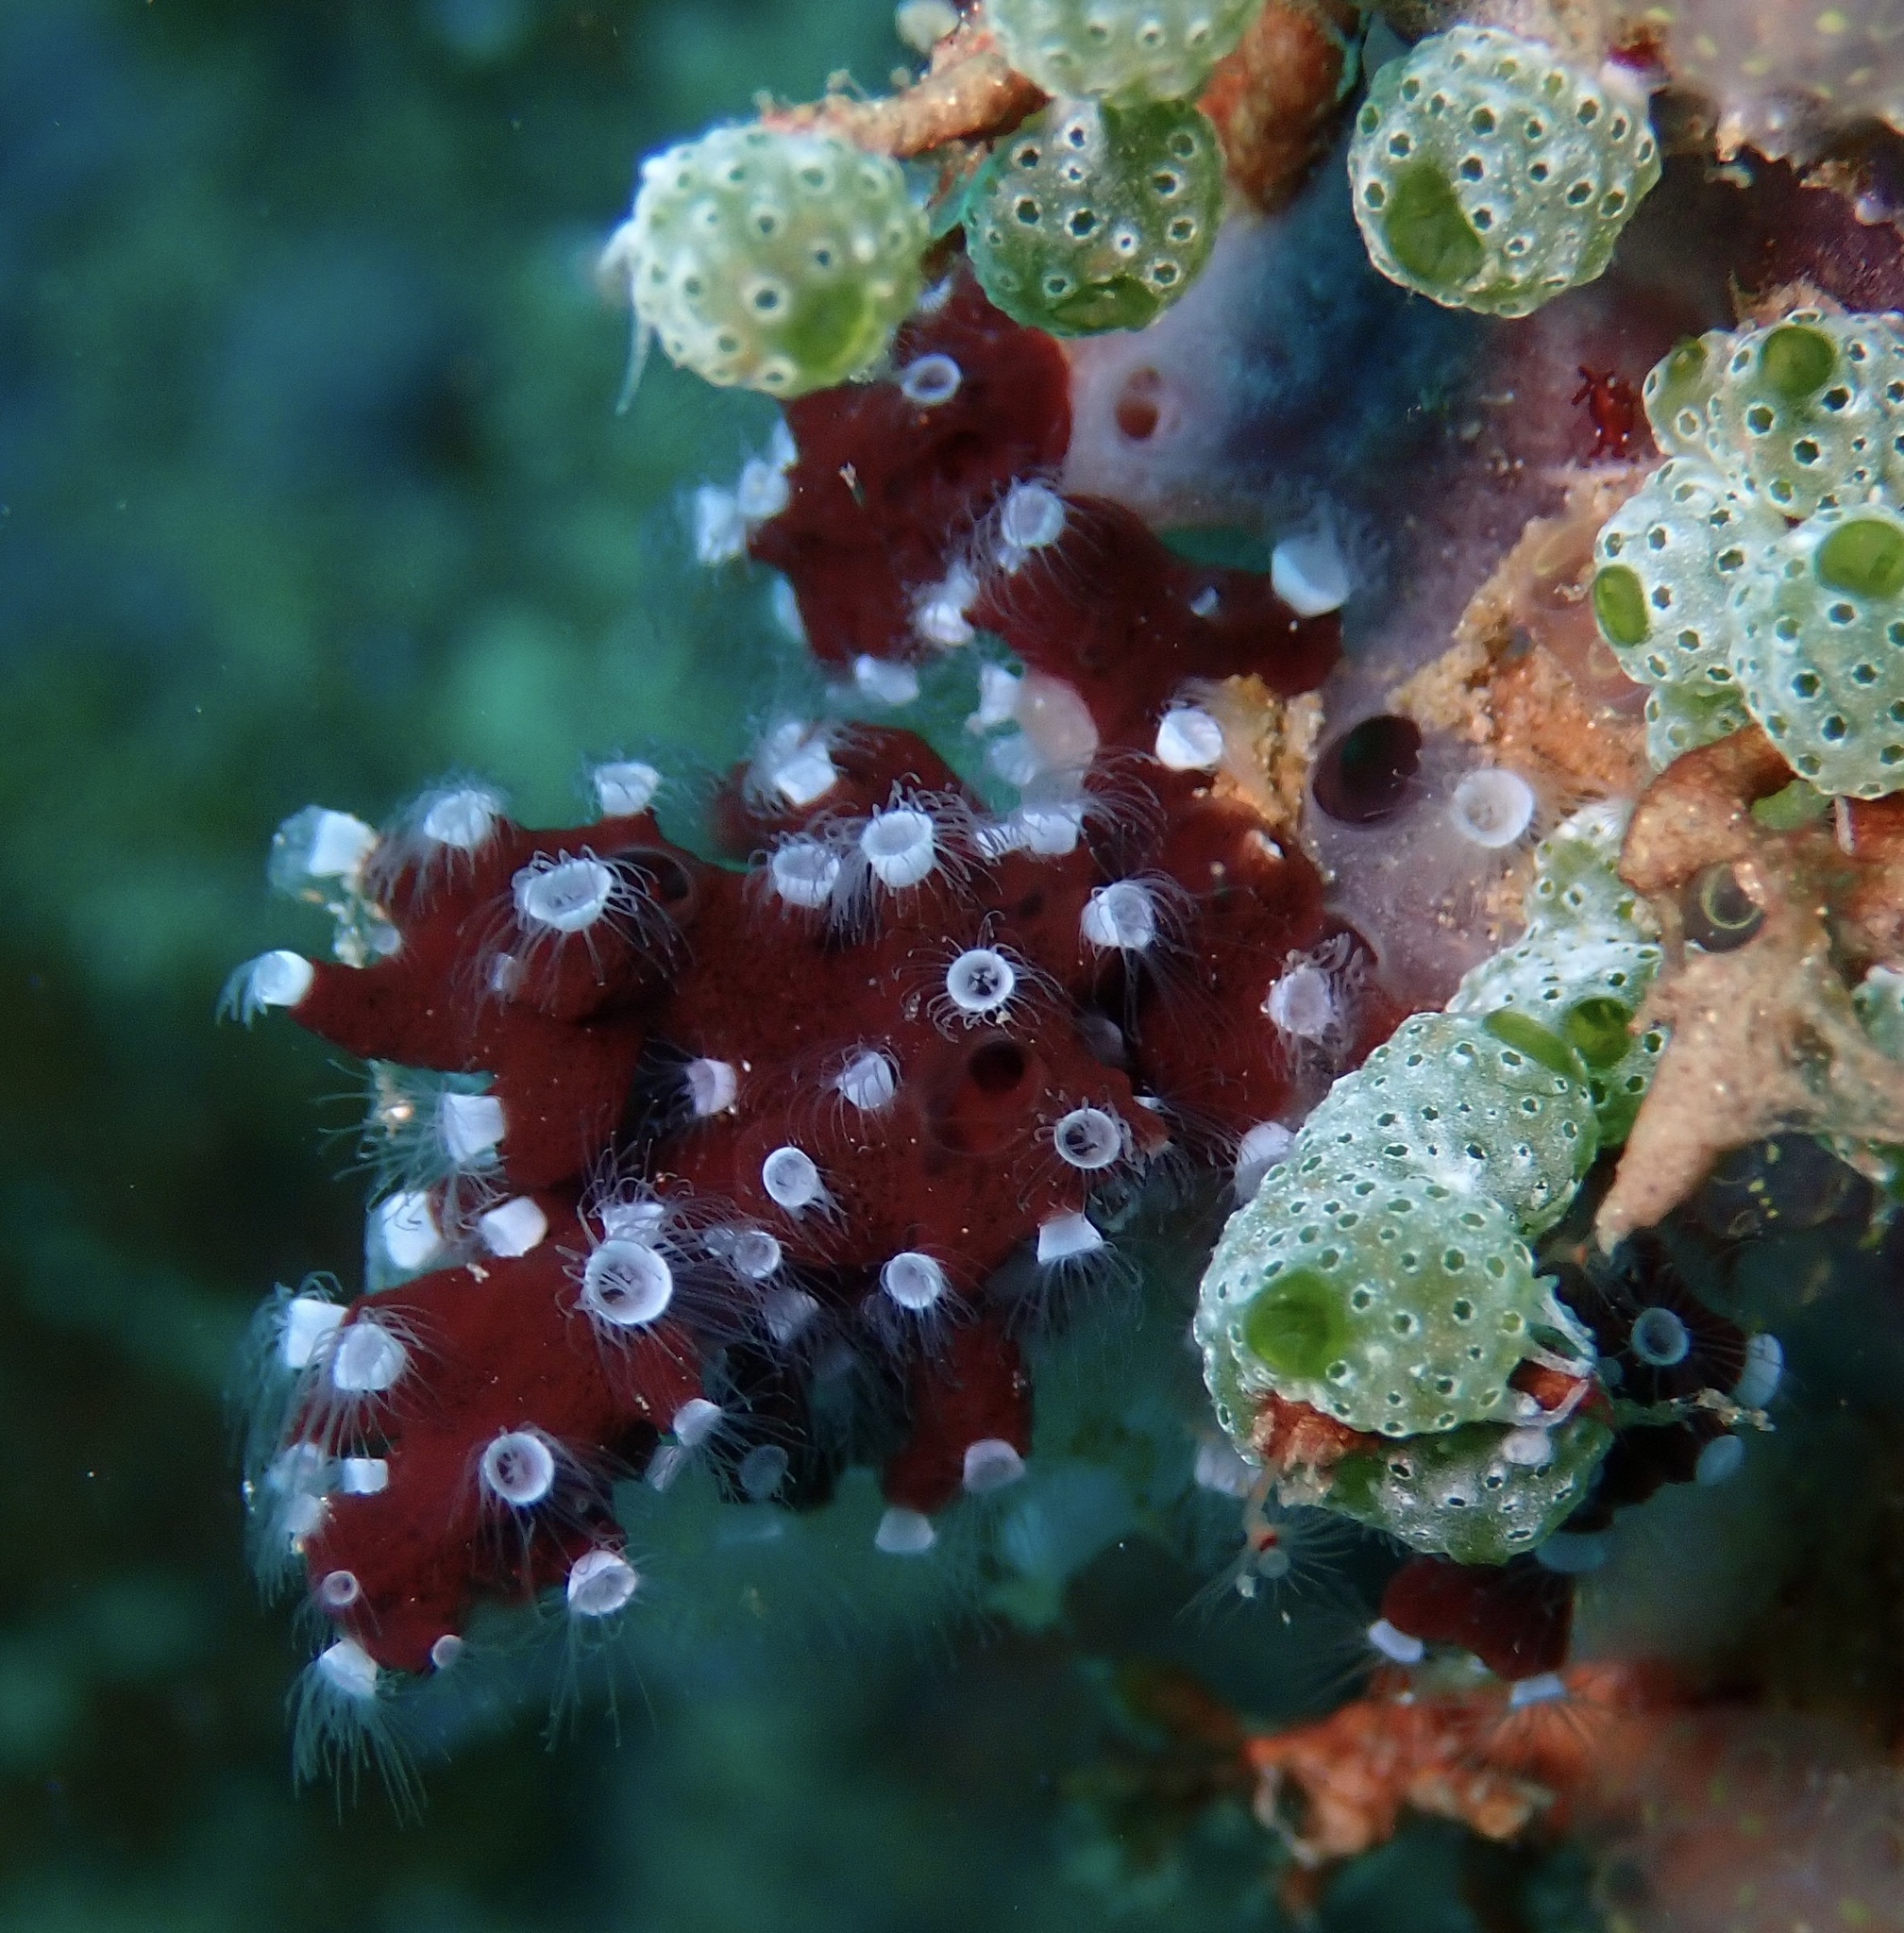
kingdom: Animalia
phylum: Cnidaria
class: Scyphozoa
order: Coronatae
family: Nausithoidae
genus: Nausithoe
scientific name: Nausithoe punctata
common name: Crown jellyfish
